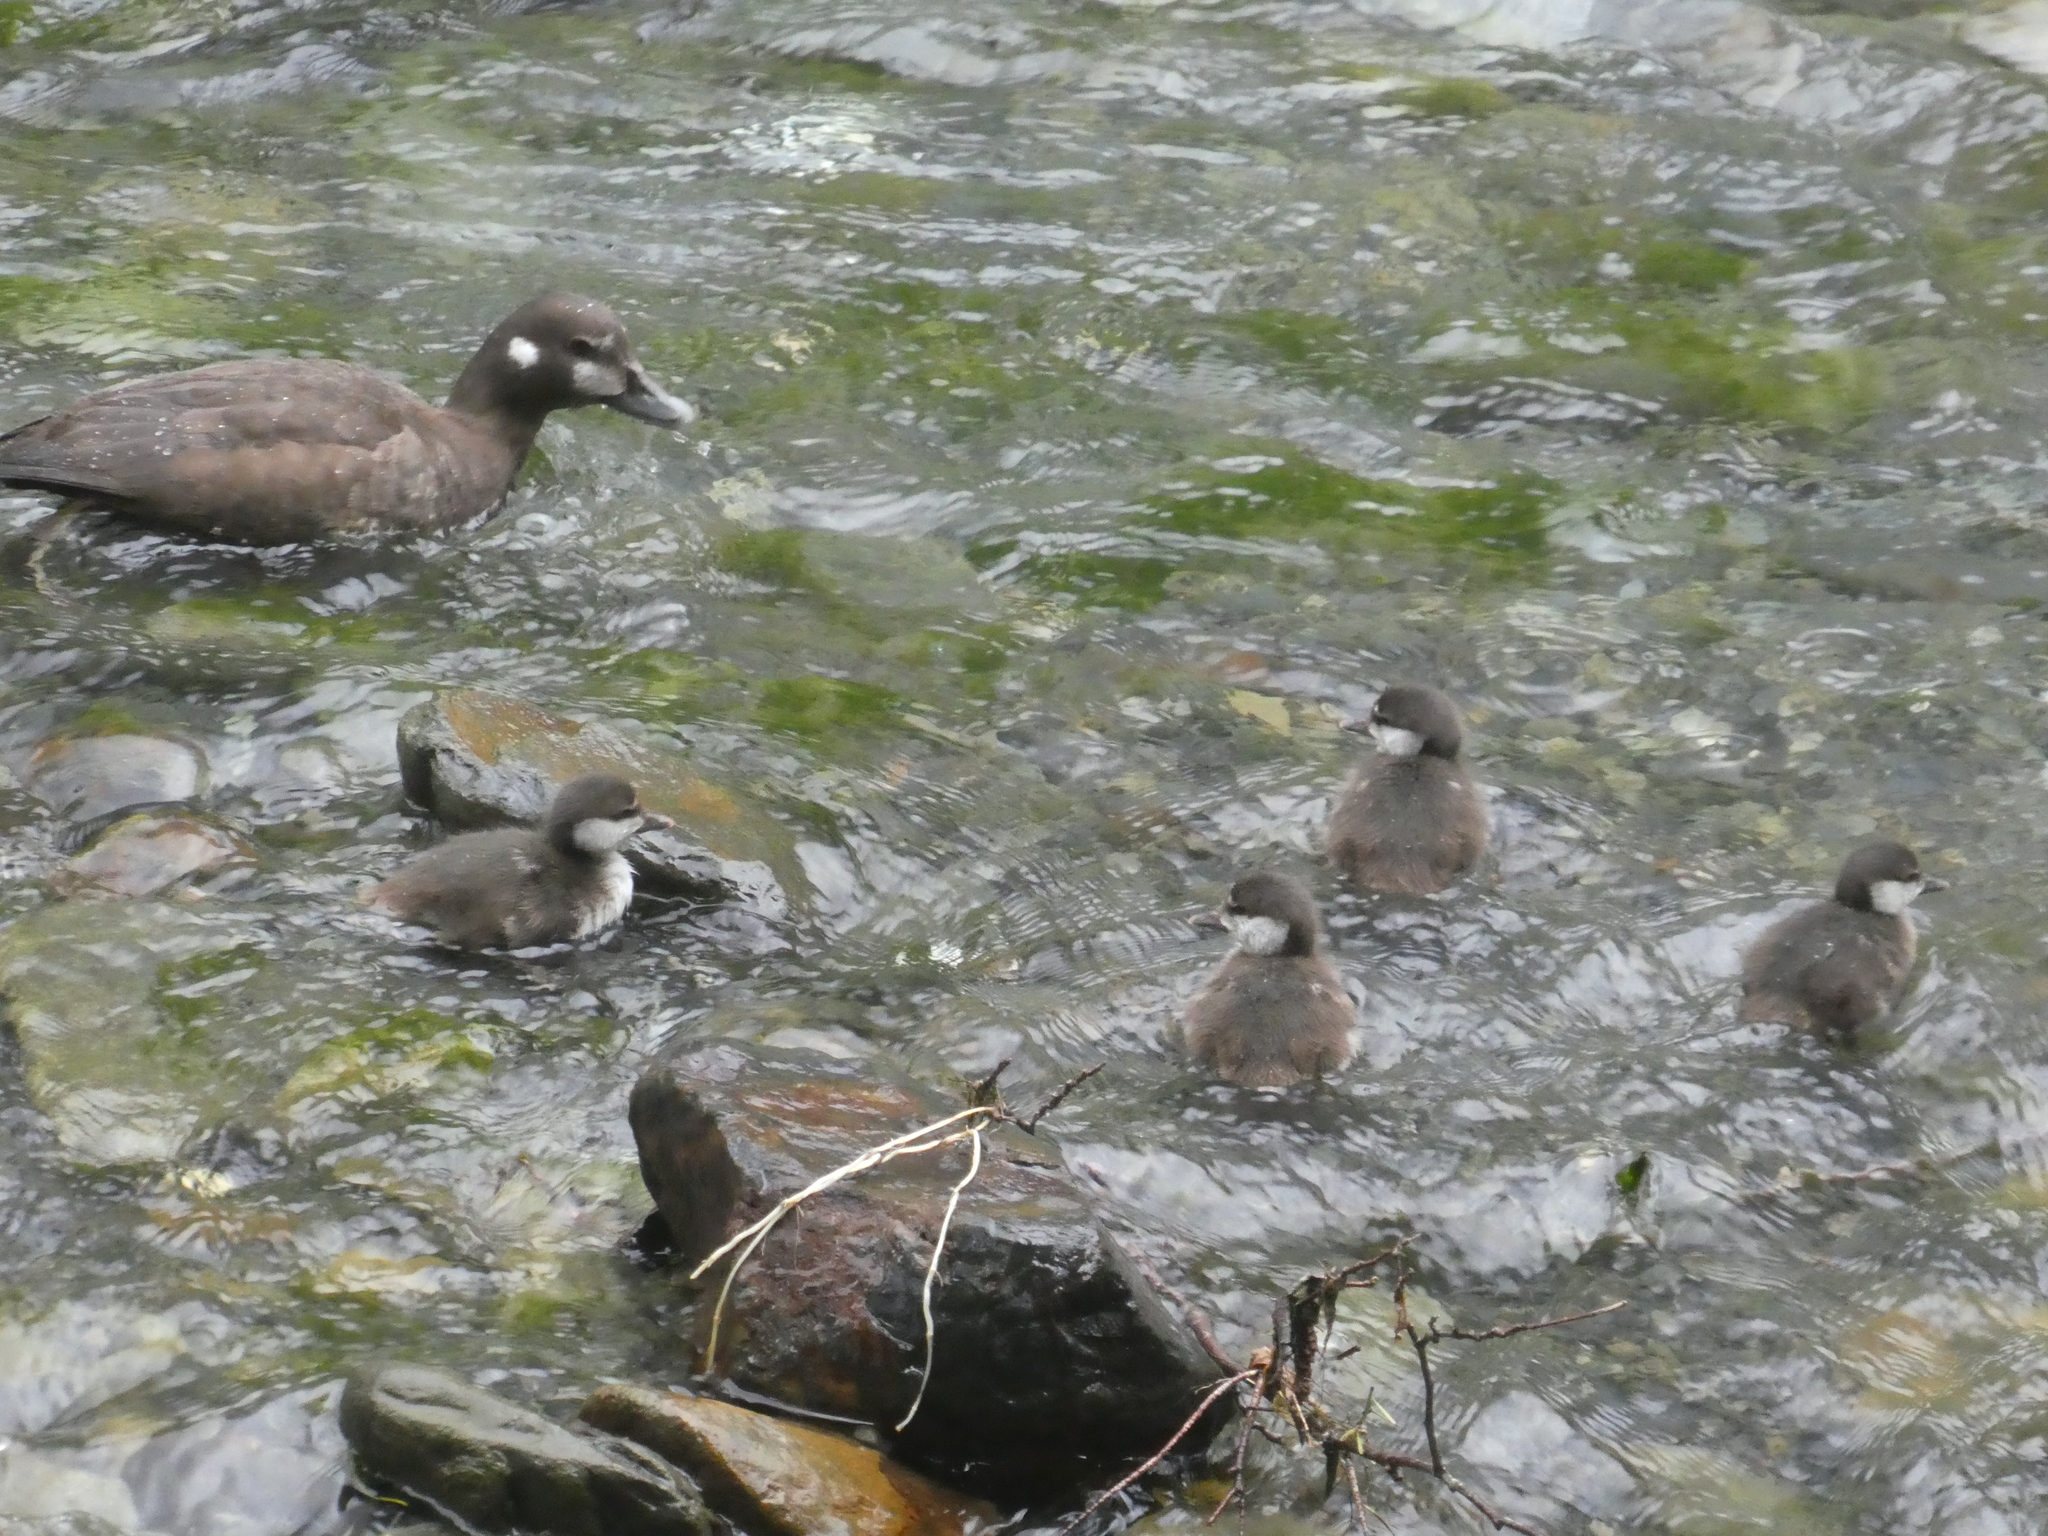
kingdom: Animalia
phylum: Chordata
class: Aves
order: Anseriformes
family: Anatidae
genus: Histrionicus
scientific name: Histrionicus histrionicus
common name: Harlequin duck
